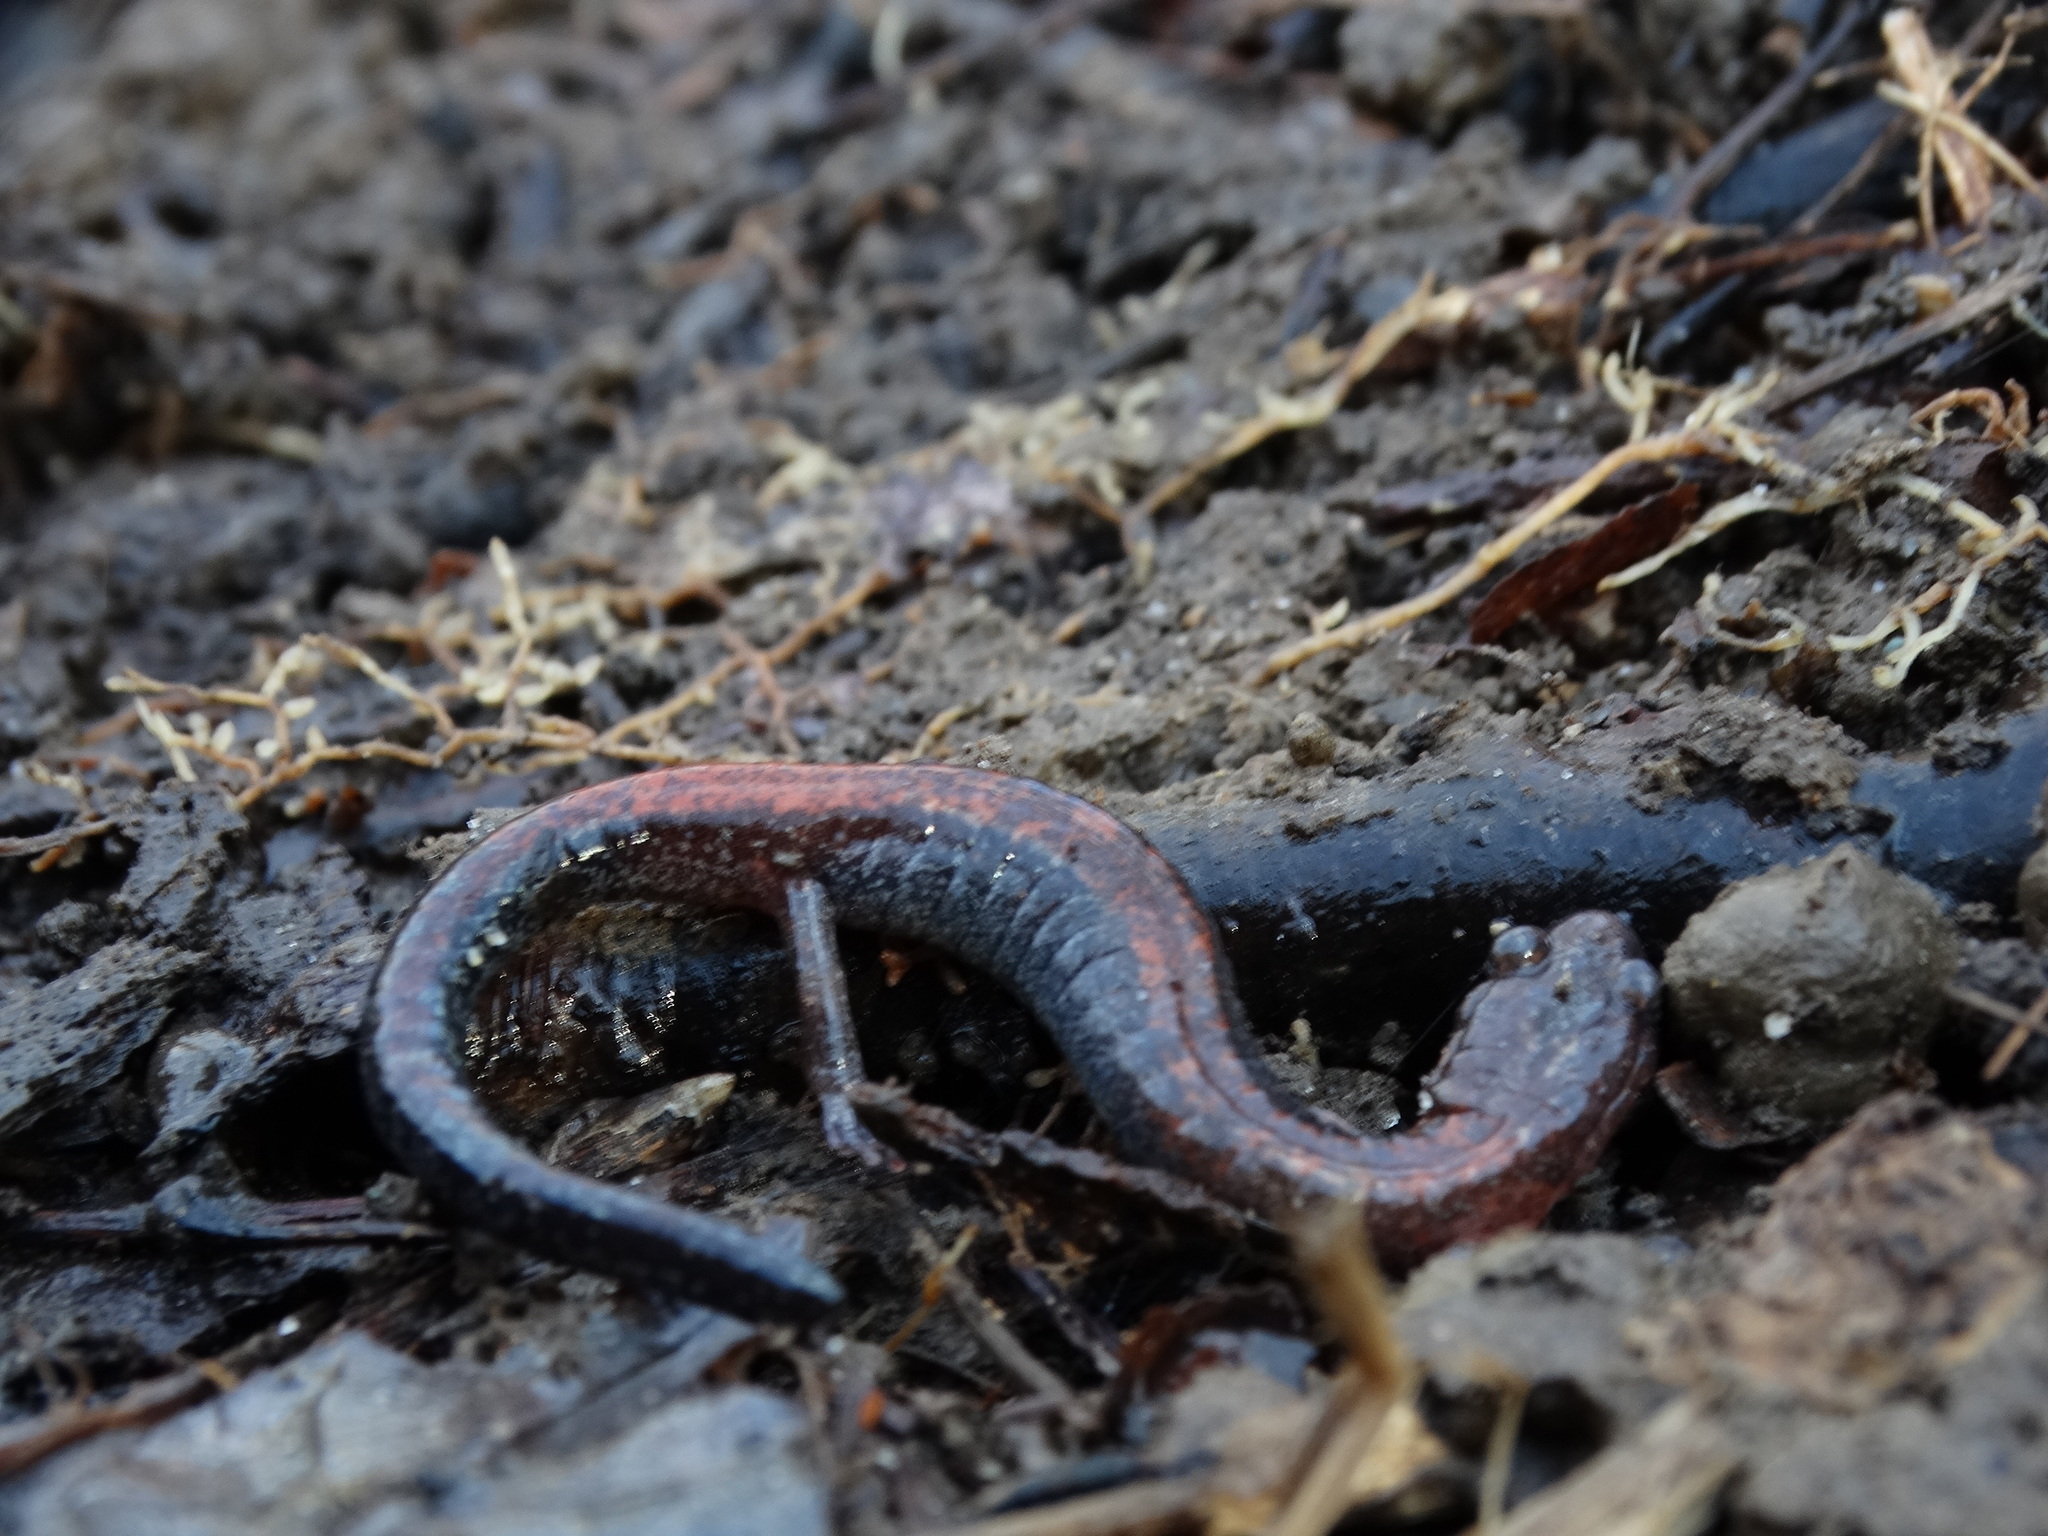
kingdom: Animalia
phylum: Chordata
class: Amphibia
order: Caudata
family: Plethodontidae
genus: Plethodon
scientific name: Plethodon cinereus
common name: Redback salamander
